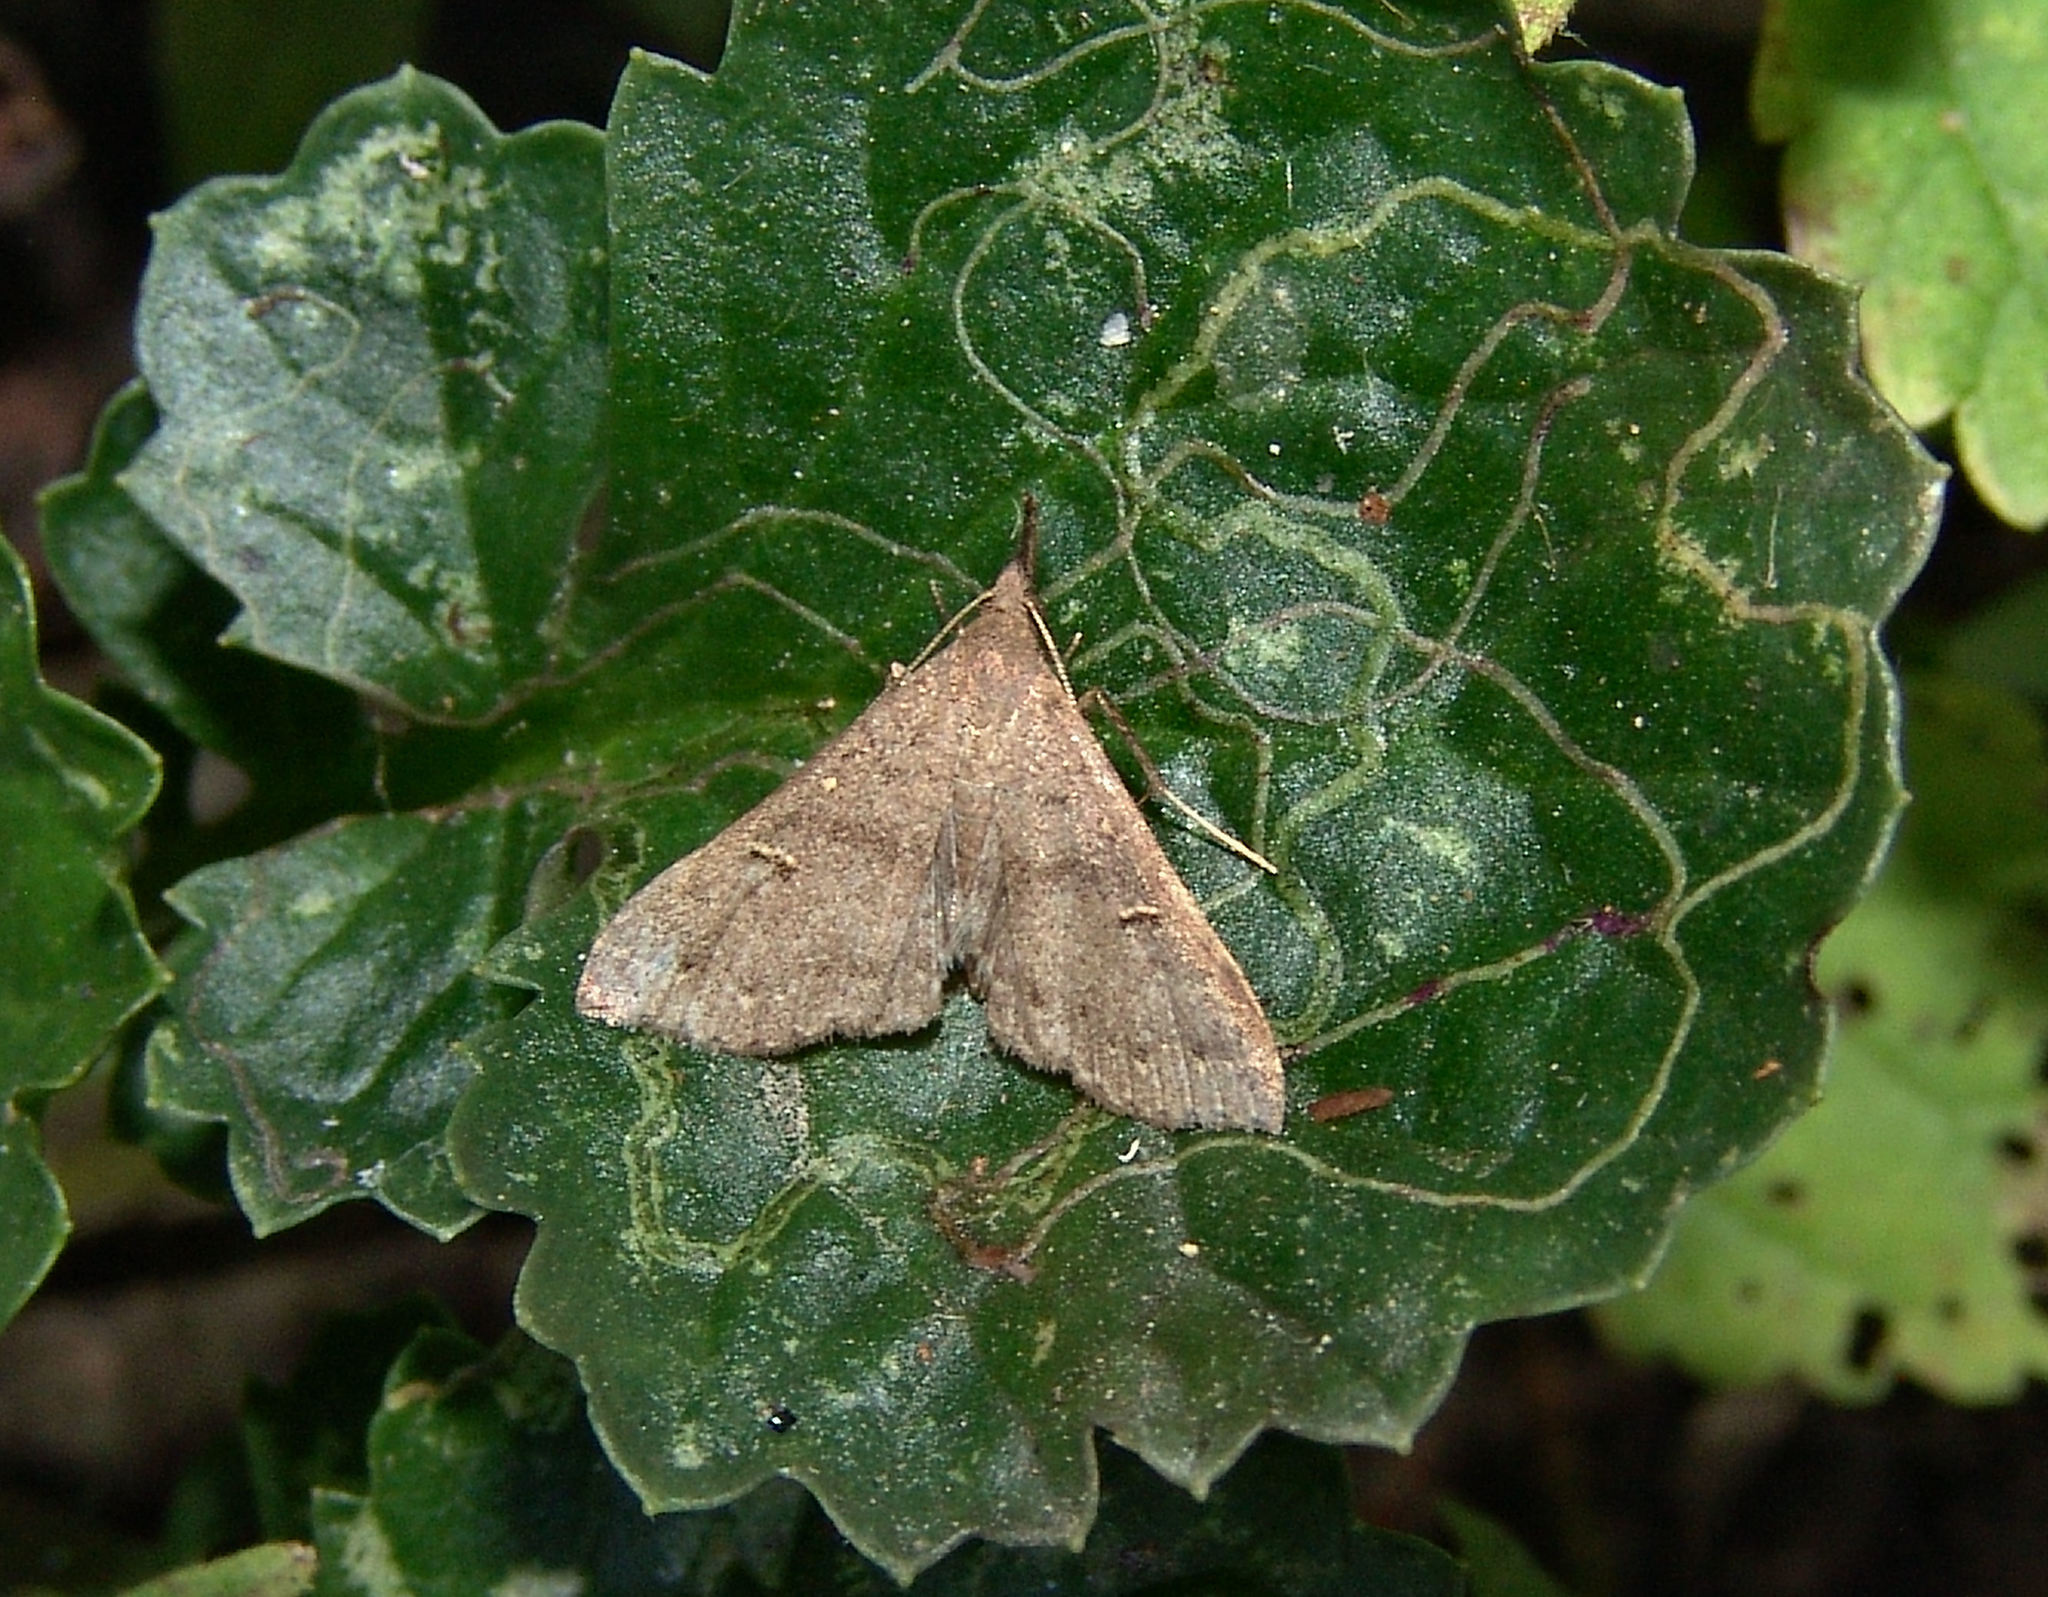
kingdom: Animalia
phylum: Arthropoda
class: Insecta
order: Lepidoptera
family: Erebidae
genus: Renia
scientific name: Renia adspergillus
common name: Speckled renia moth
